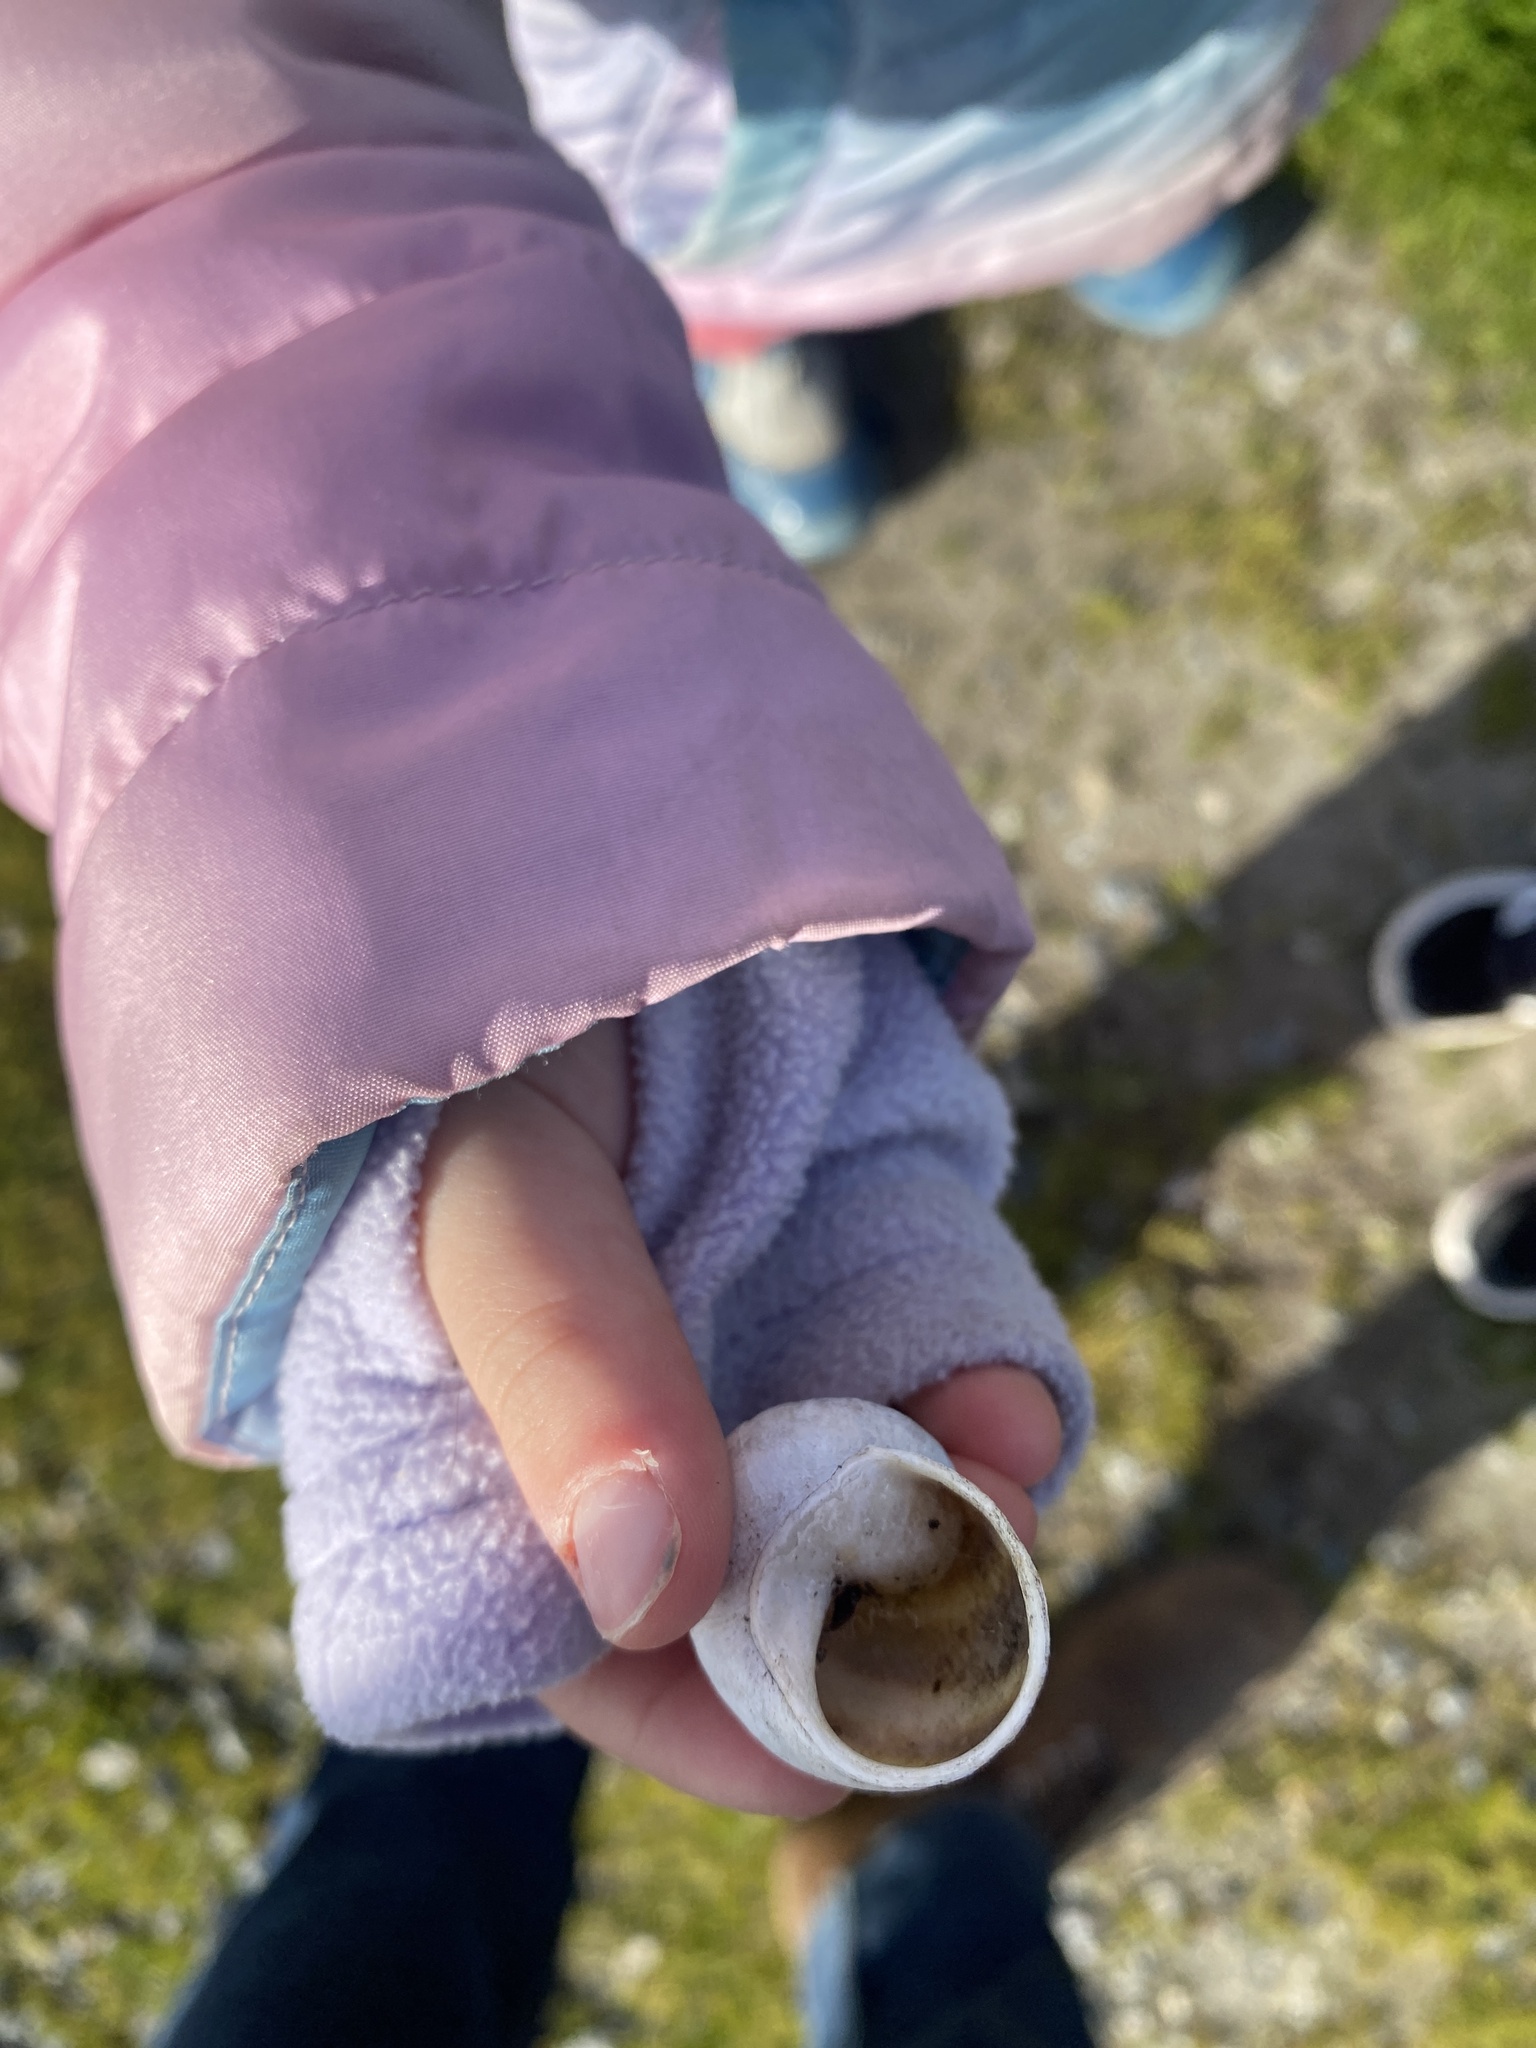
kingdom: Animalia
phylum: Mollusca
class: Gastropoda
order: Stylommatophora
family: Helicidae
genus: Cornu
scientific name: Cornu aspersum
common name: Brown garden snail
